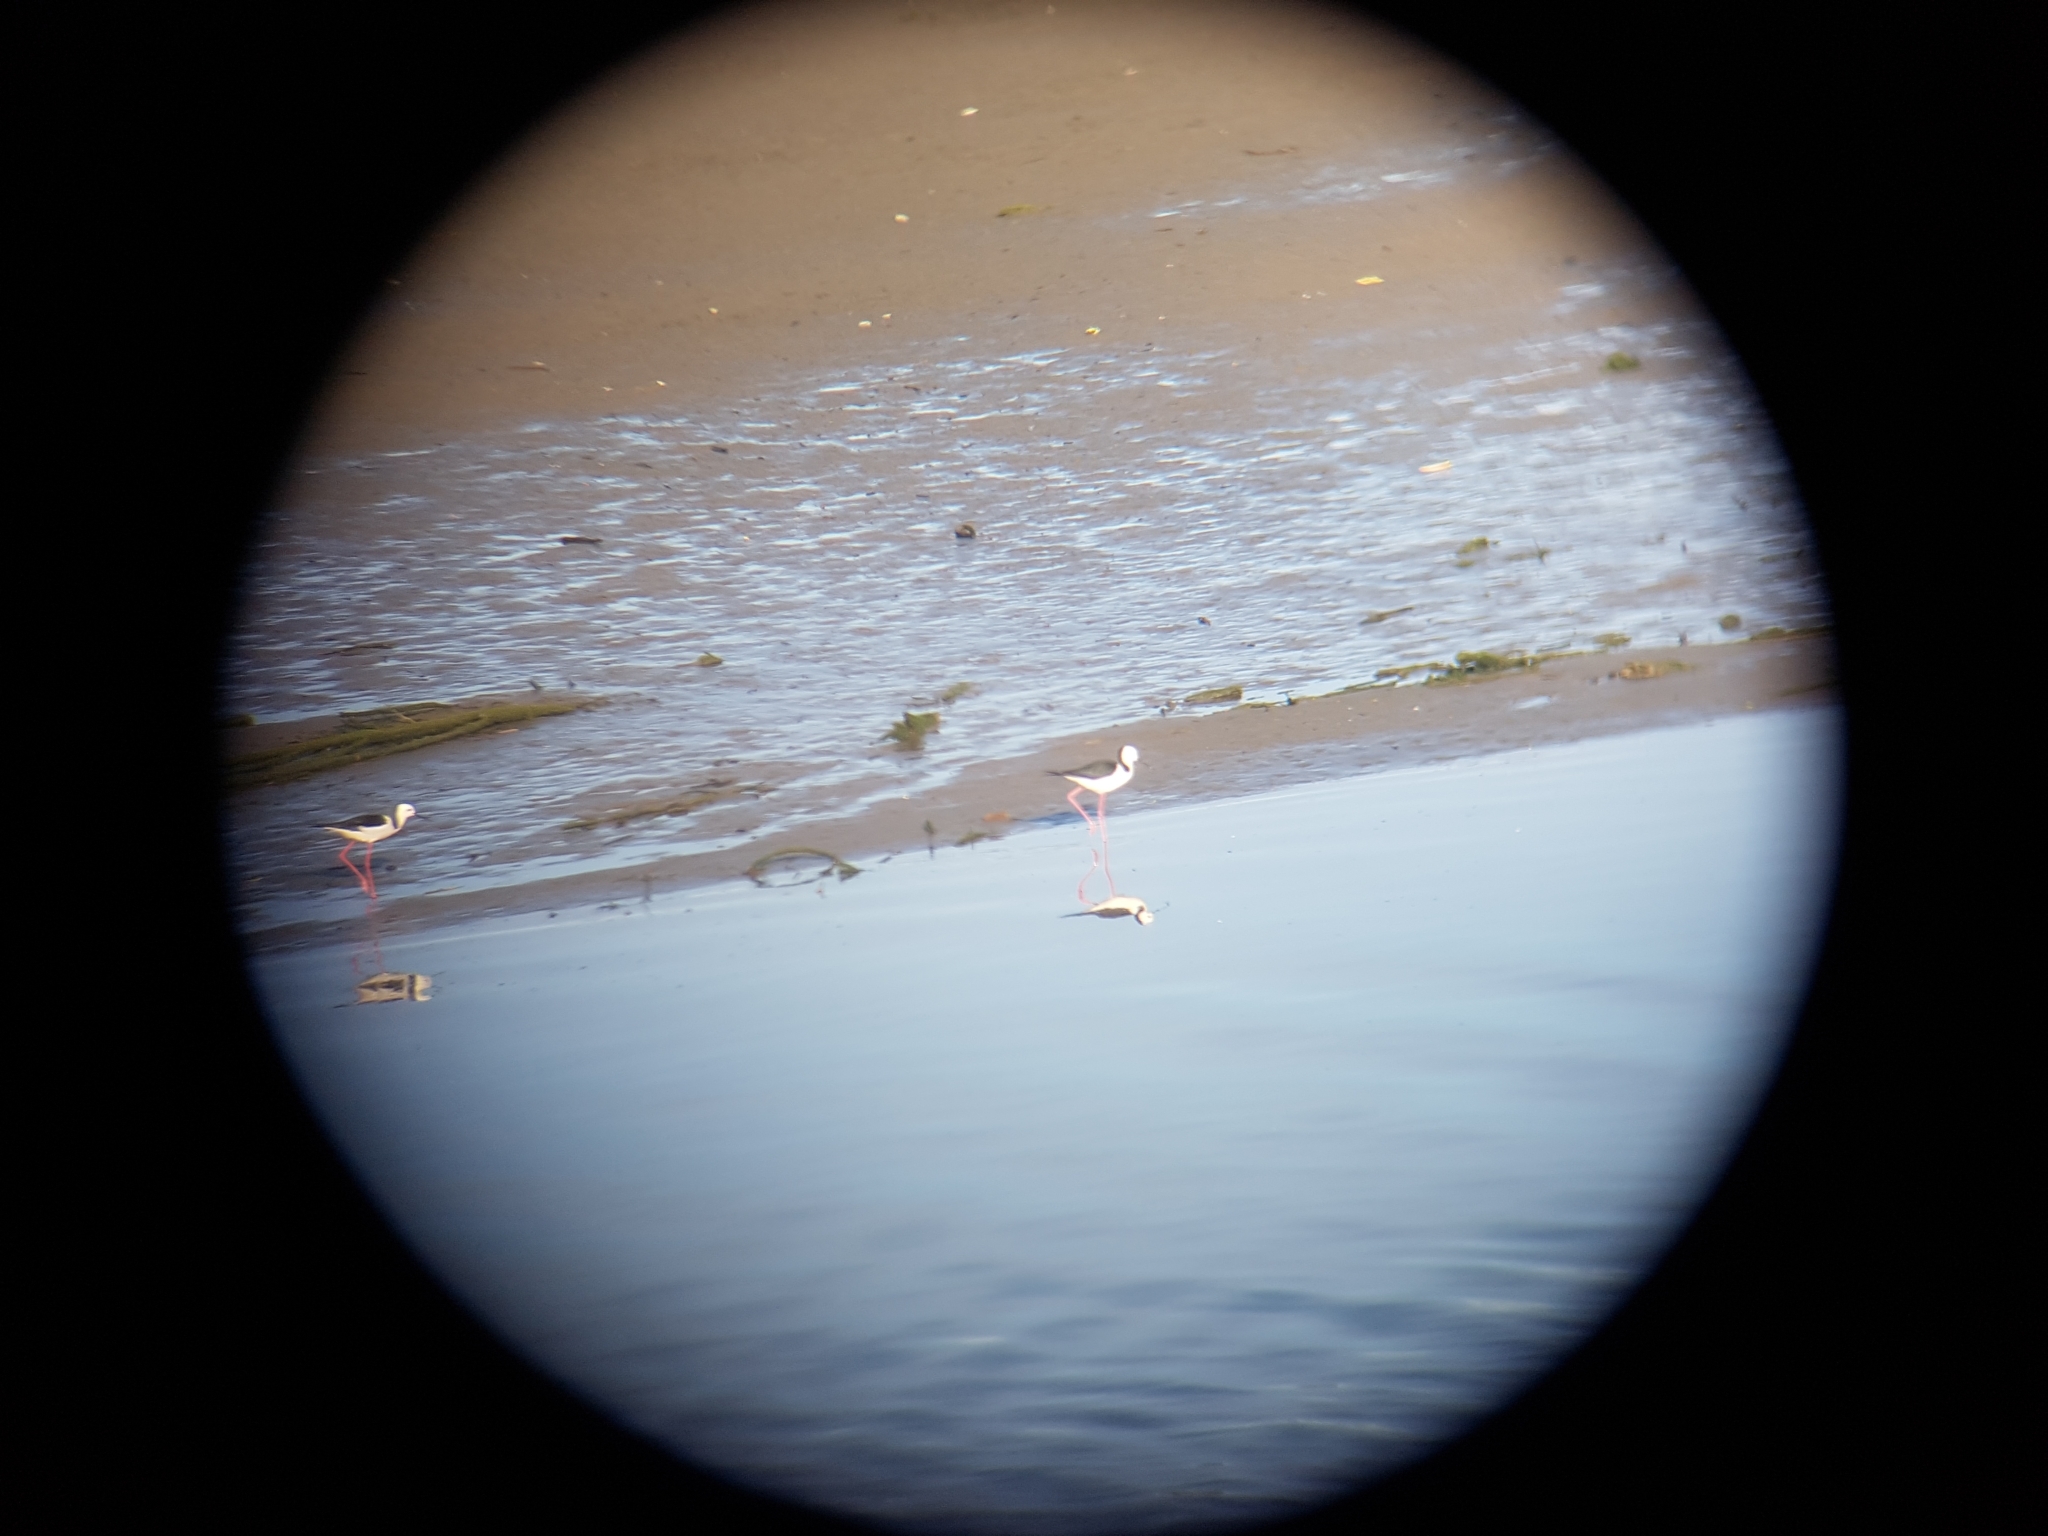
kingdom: Animalia
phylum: Chordata
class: Aves
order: Charadriiformes
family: Recurvirostridae
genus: Himantopus
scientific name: Himantopus leucocephalus
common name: White-headed stilt
